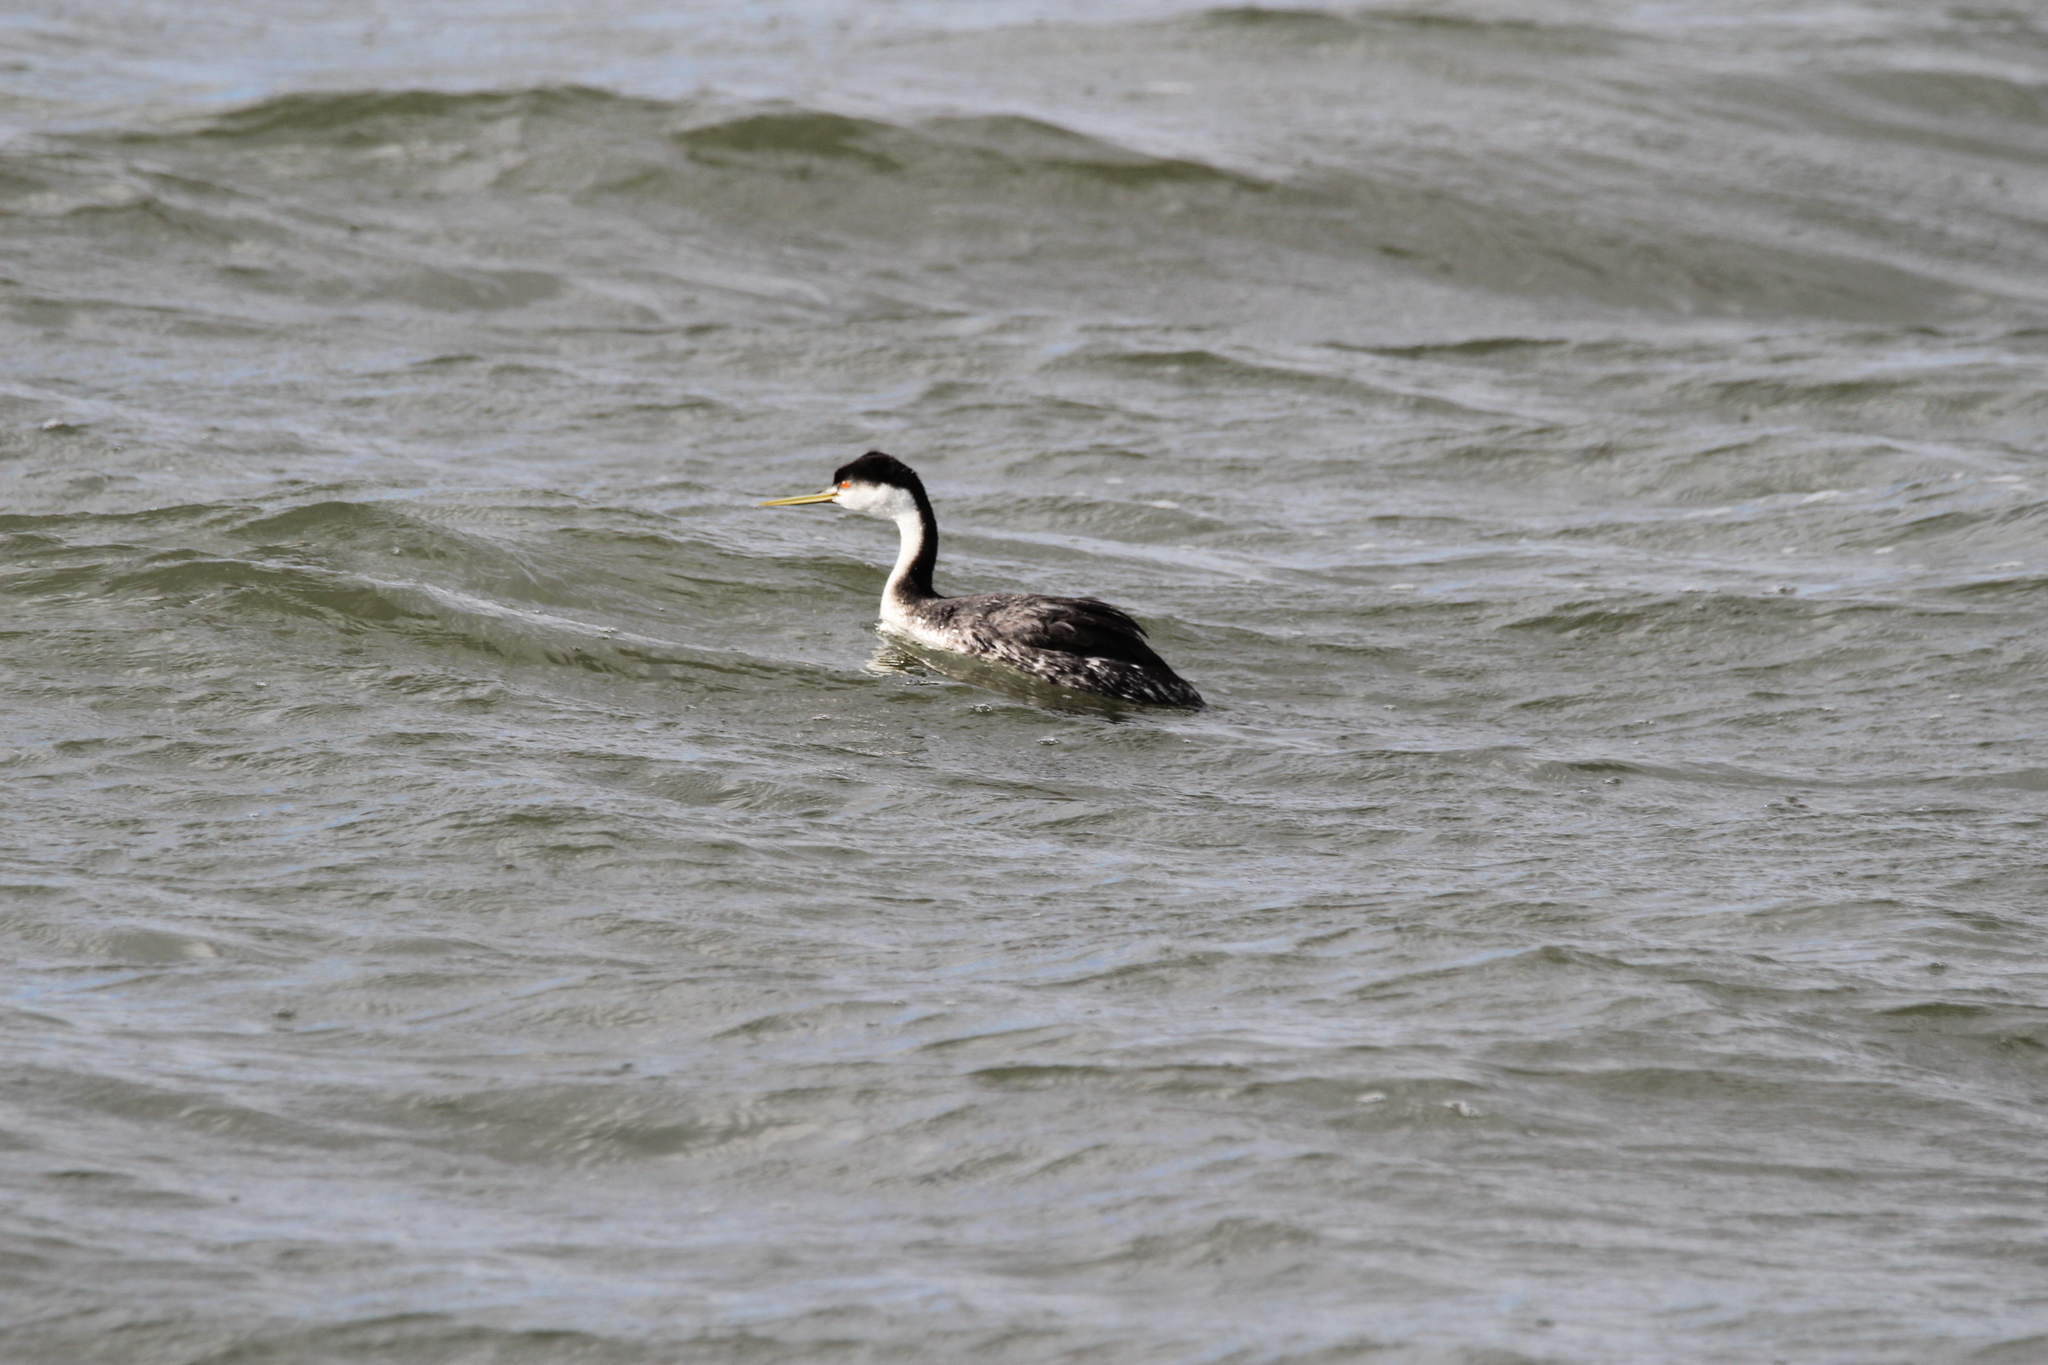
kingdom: Animalia
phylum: Chordata
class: Aves
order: Podicipediformes
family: Podicipedidae
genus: Aechmophorus
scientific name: Aechmophorus clarkii
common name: Clark's grebe
